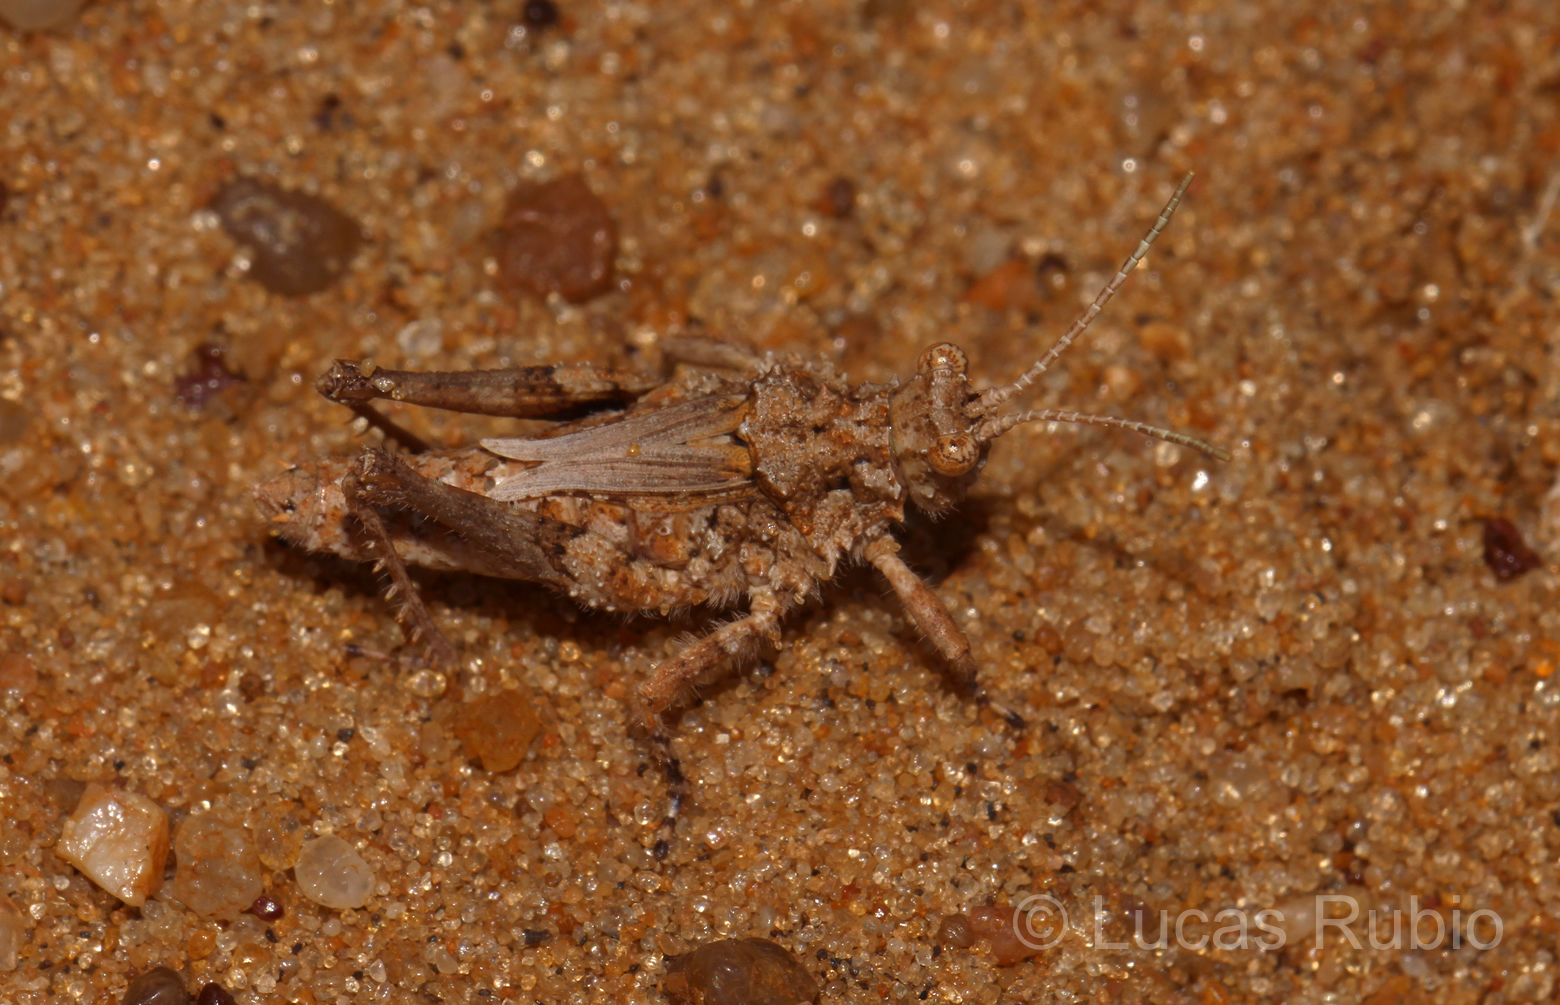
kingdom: Animalia
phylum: Arthropoda
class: Insecta
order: Orthoptera
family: Ommexechidae
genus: Ommexecha
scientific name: Ommexecha virens
